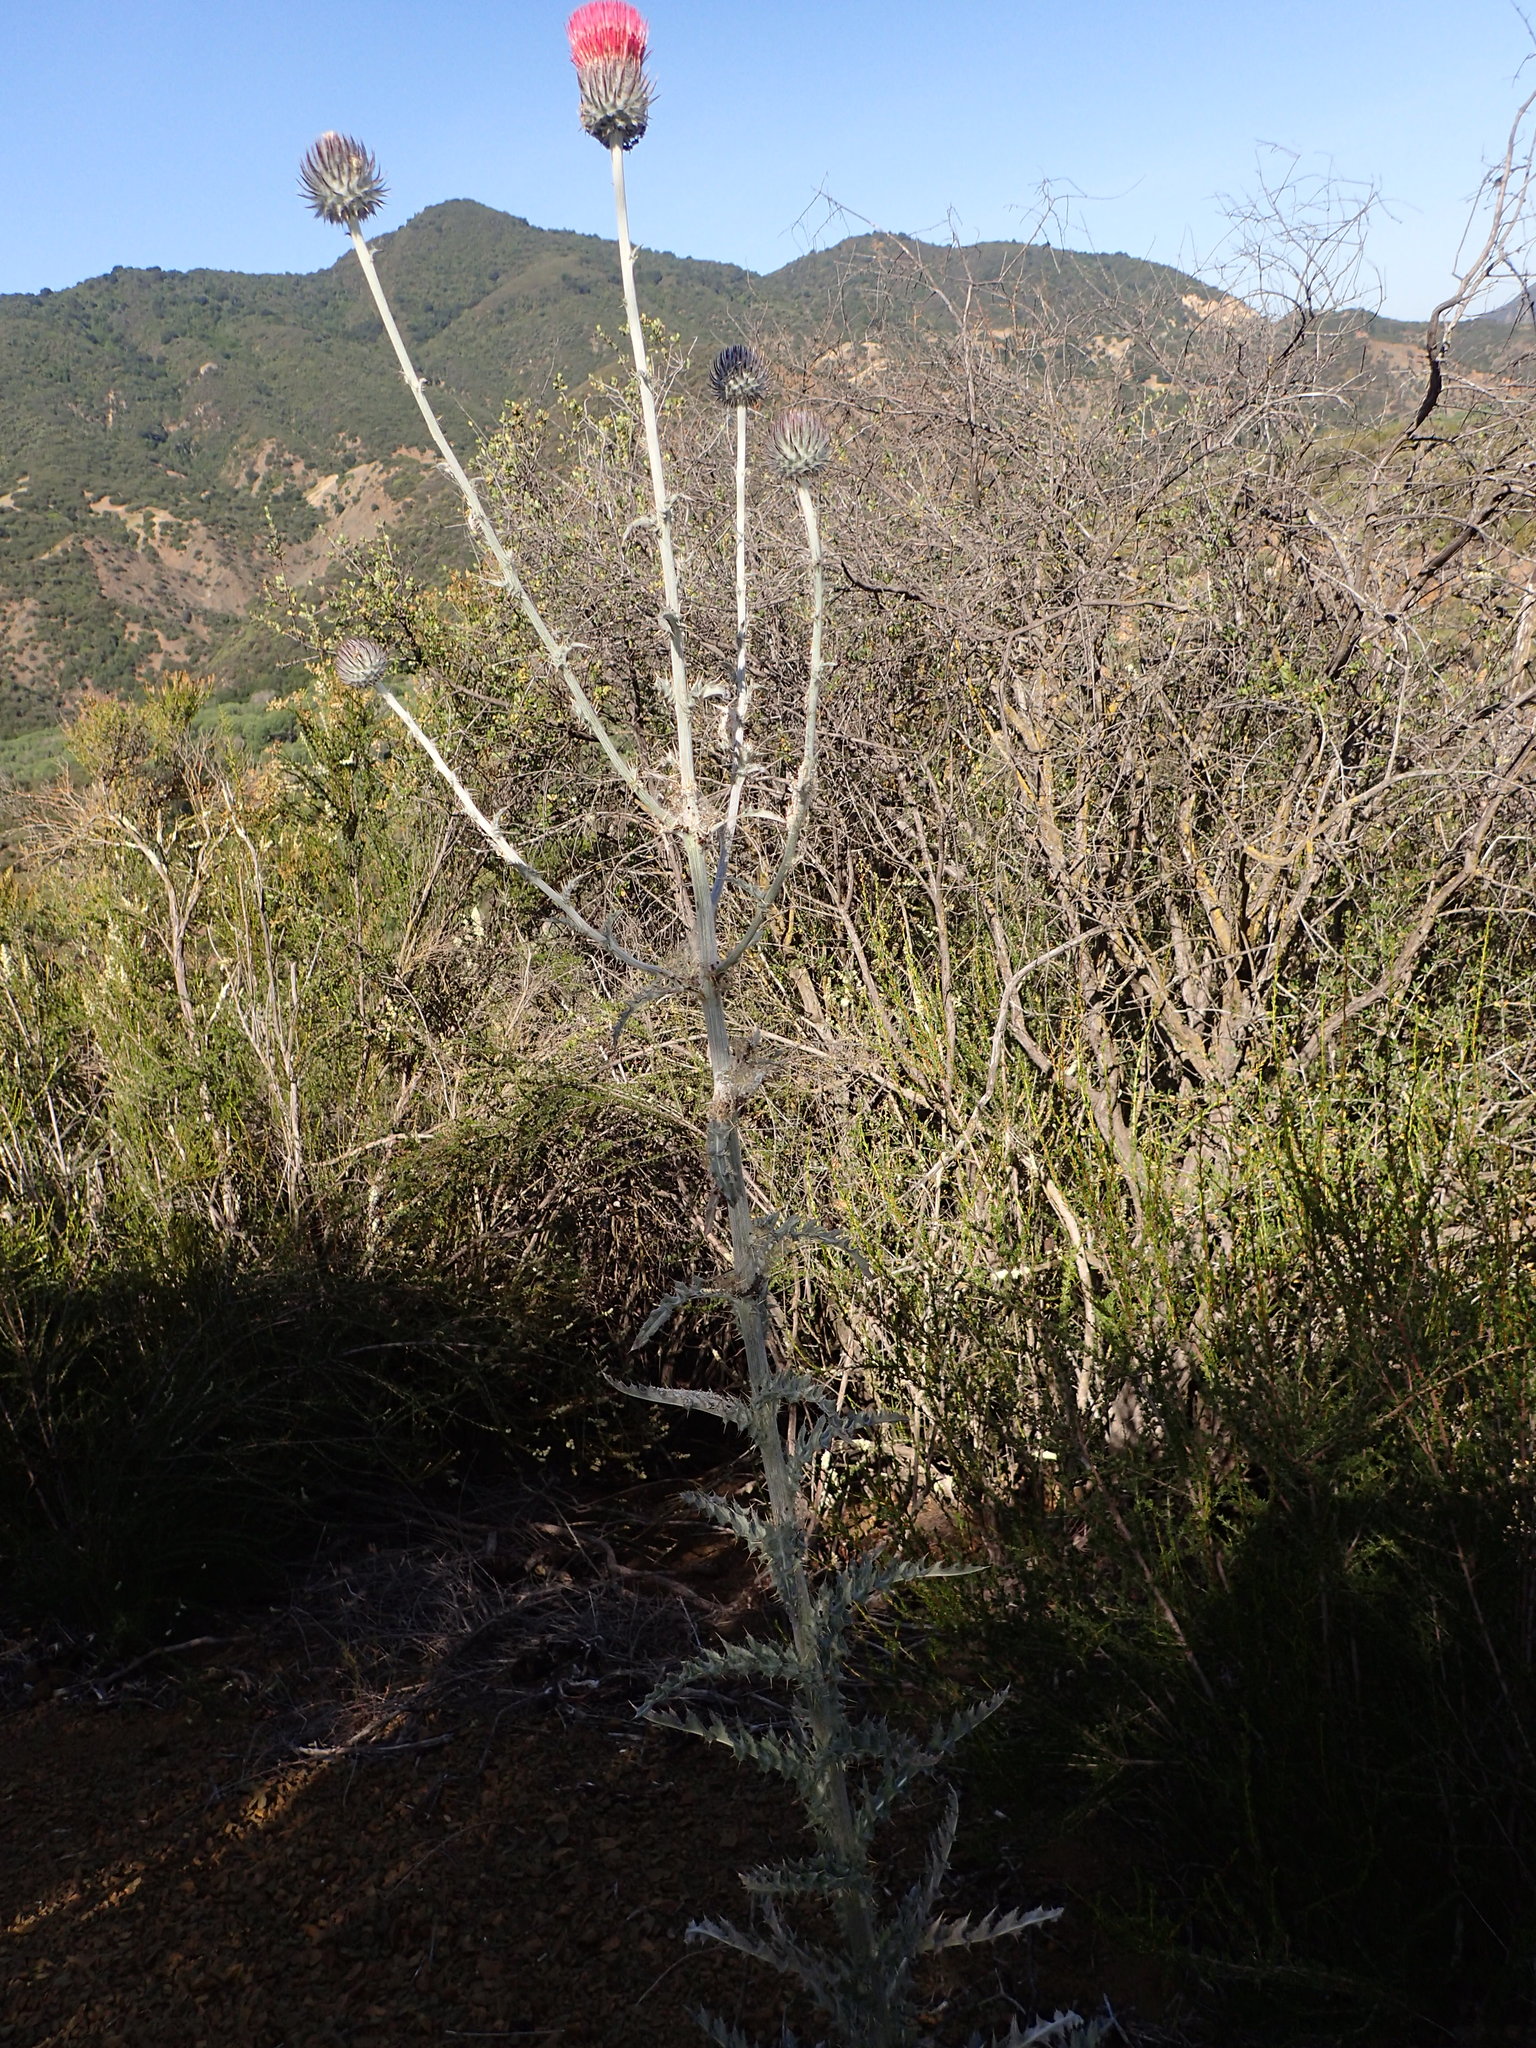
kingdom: Plantae
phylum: Tracheophyta
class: Magnoliopsida
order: Asterales
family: Asteraceae
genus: Cirsium
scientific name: Cirsium occidentale
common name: Western thistle
